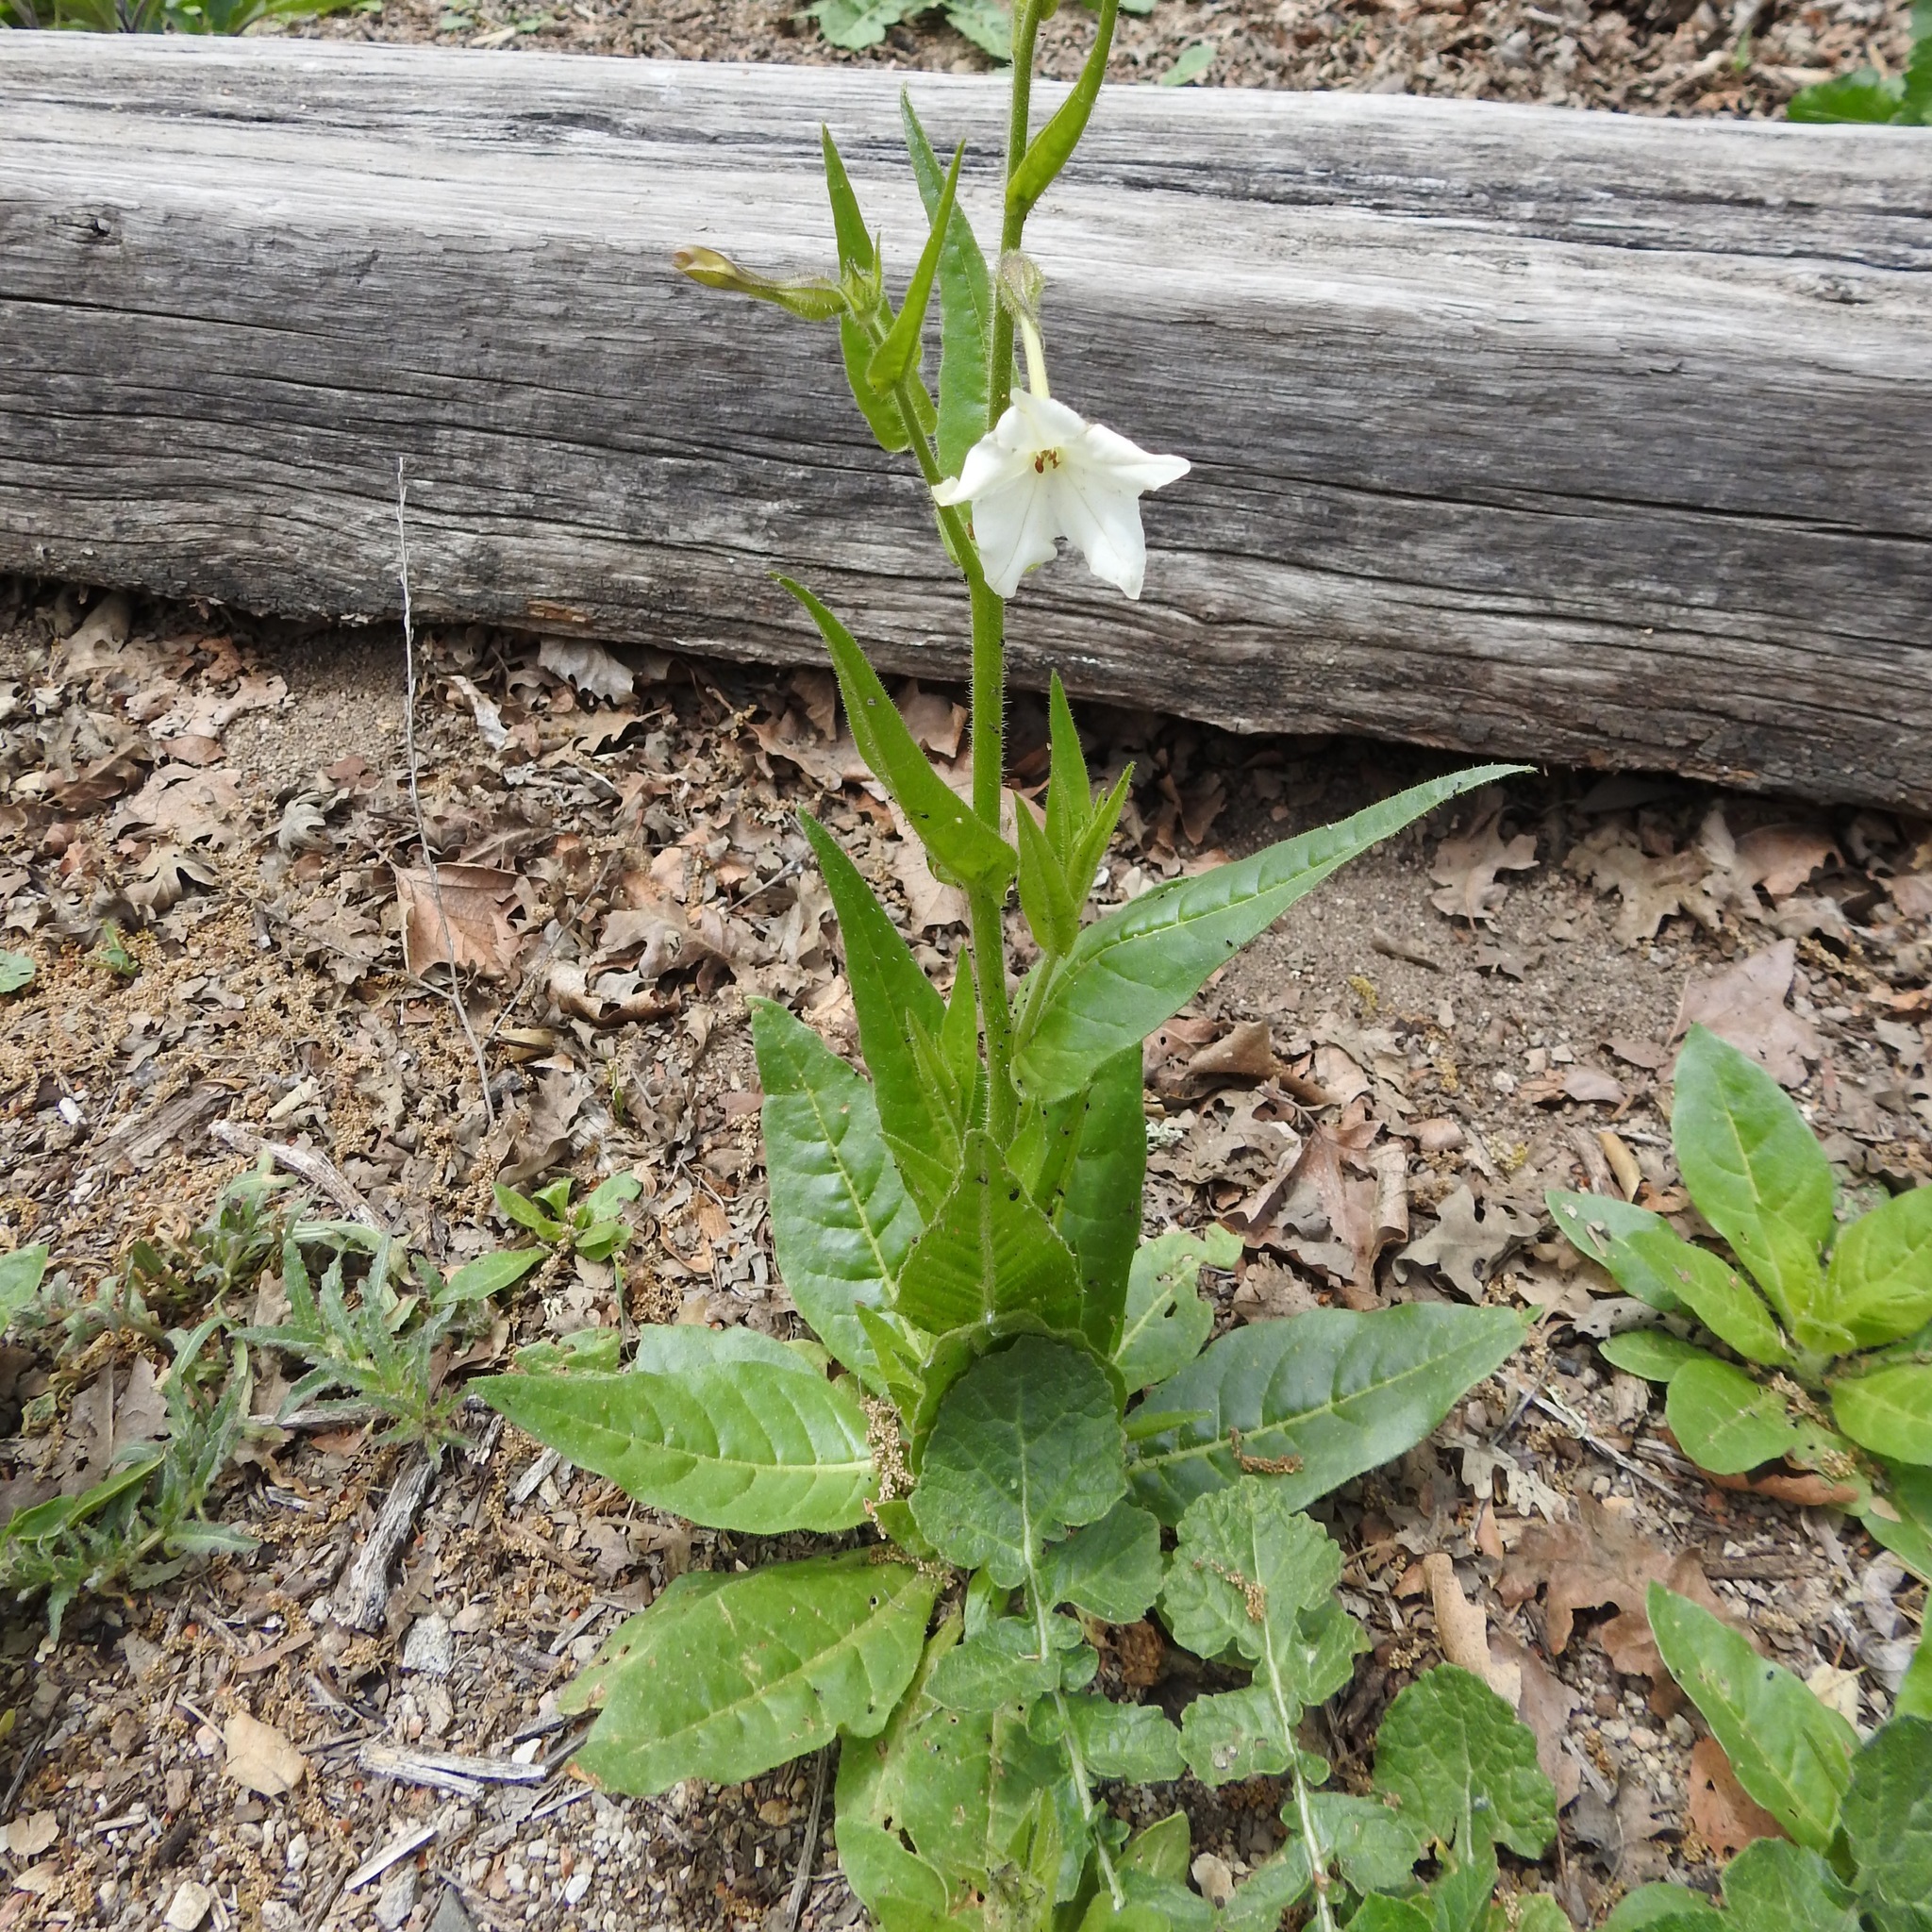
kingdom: Plantae
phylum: Tracheophyta
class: Magnoliopsida
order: Solanales
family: Solanaceae
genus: Nicotiana
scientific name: Nicotiana quadrivalvis
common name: Indian tobacco
